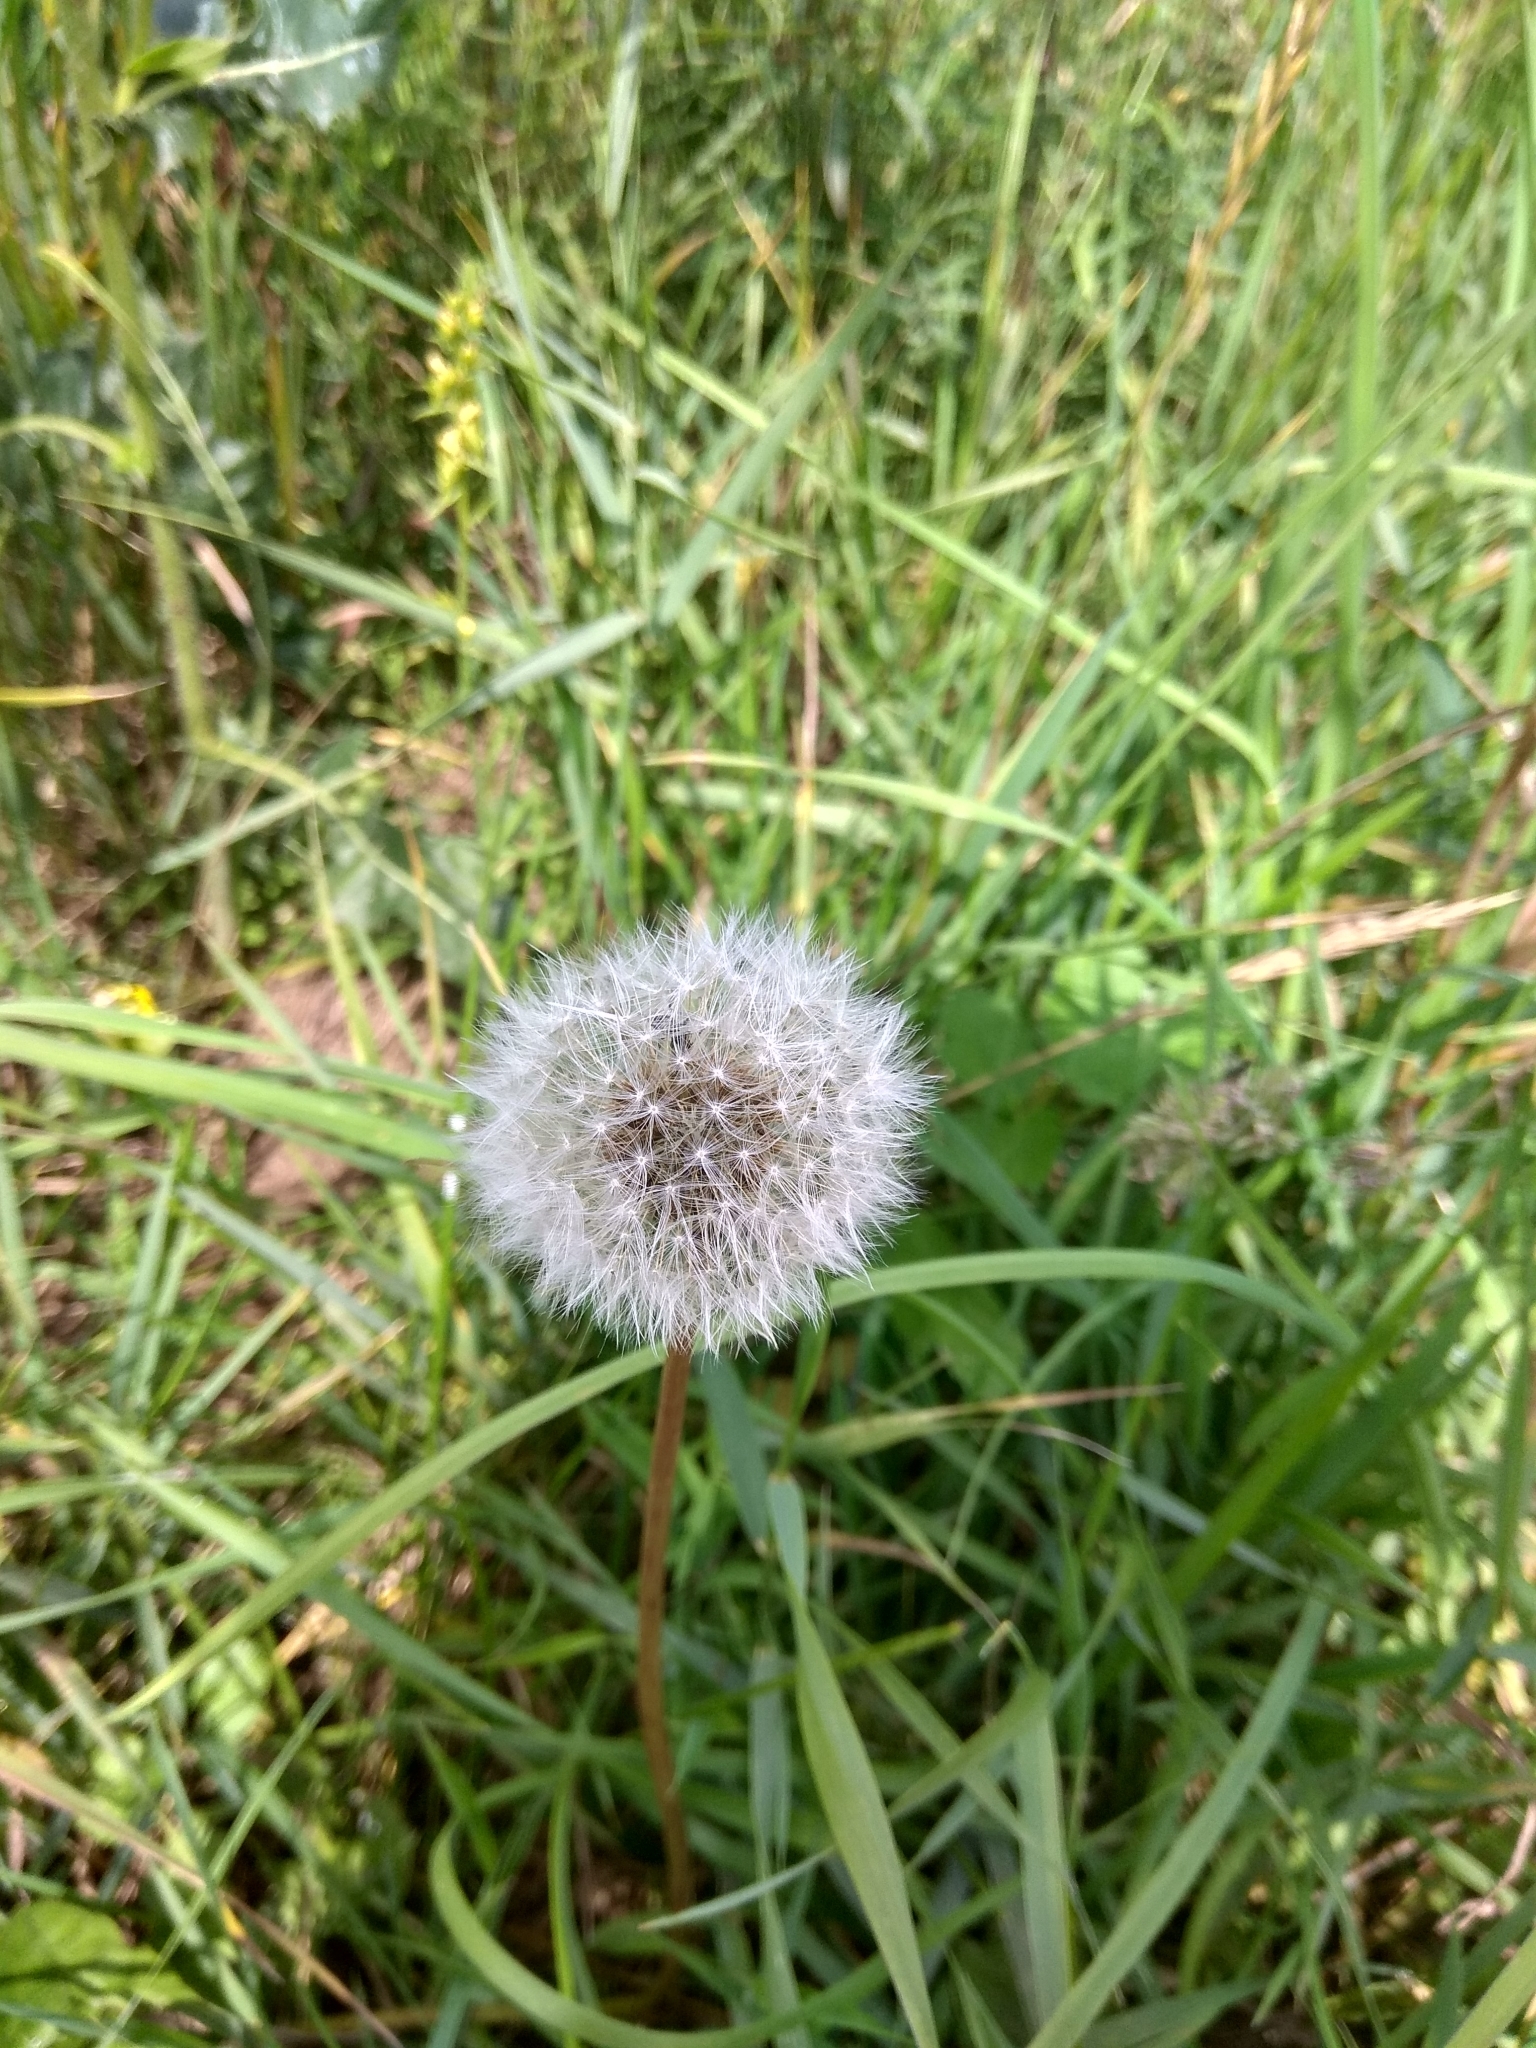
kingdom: Plantae
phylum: Tracheophyta
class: Magnoliopsida
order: Asterales
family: Asteraceae
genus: Taraxacum
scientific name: Taraxacum officinale
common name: Common dandelion
